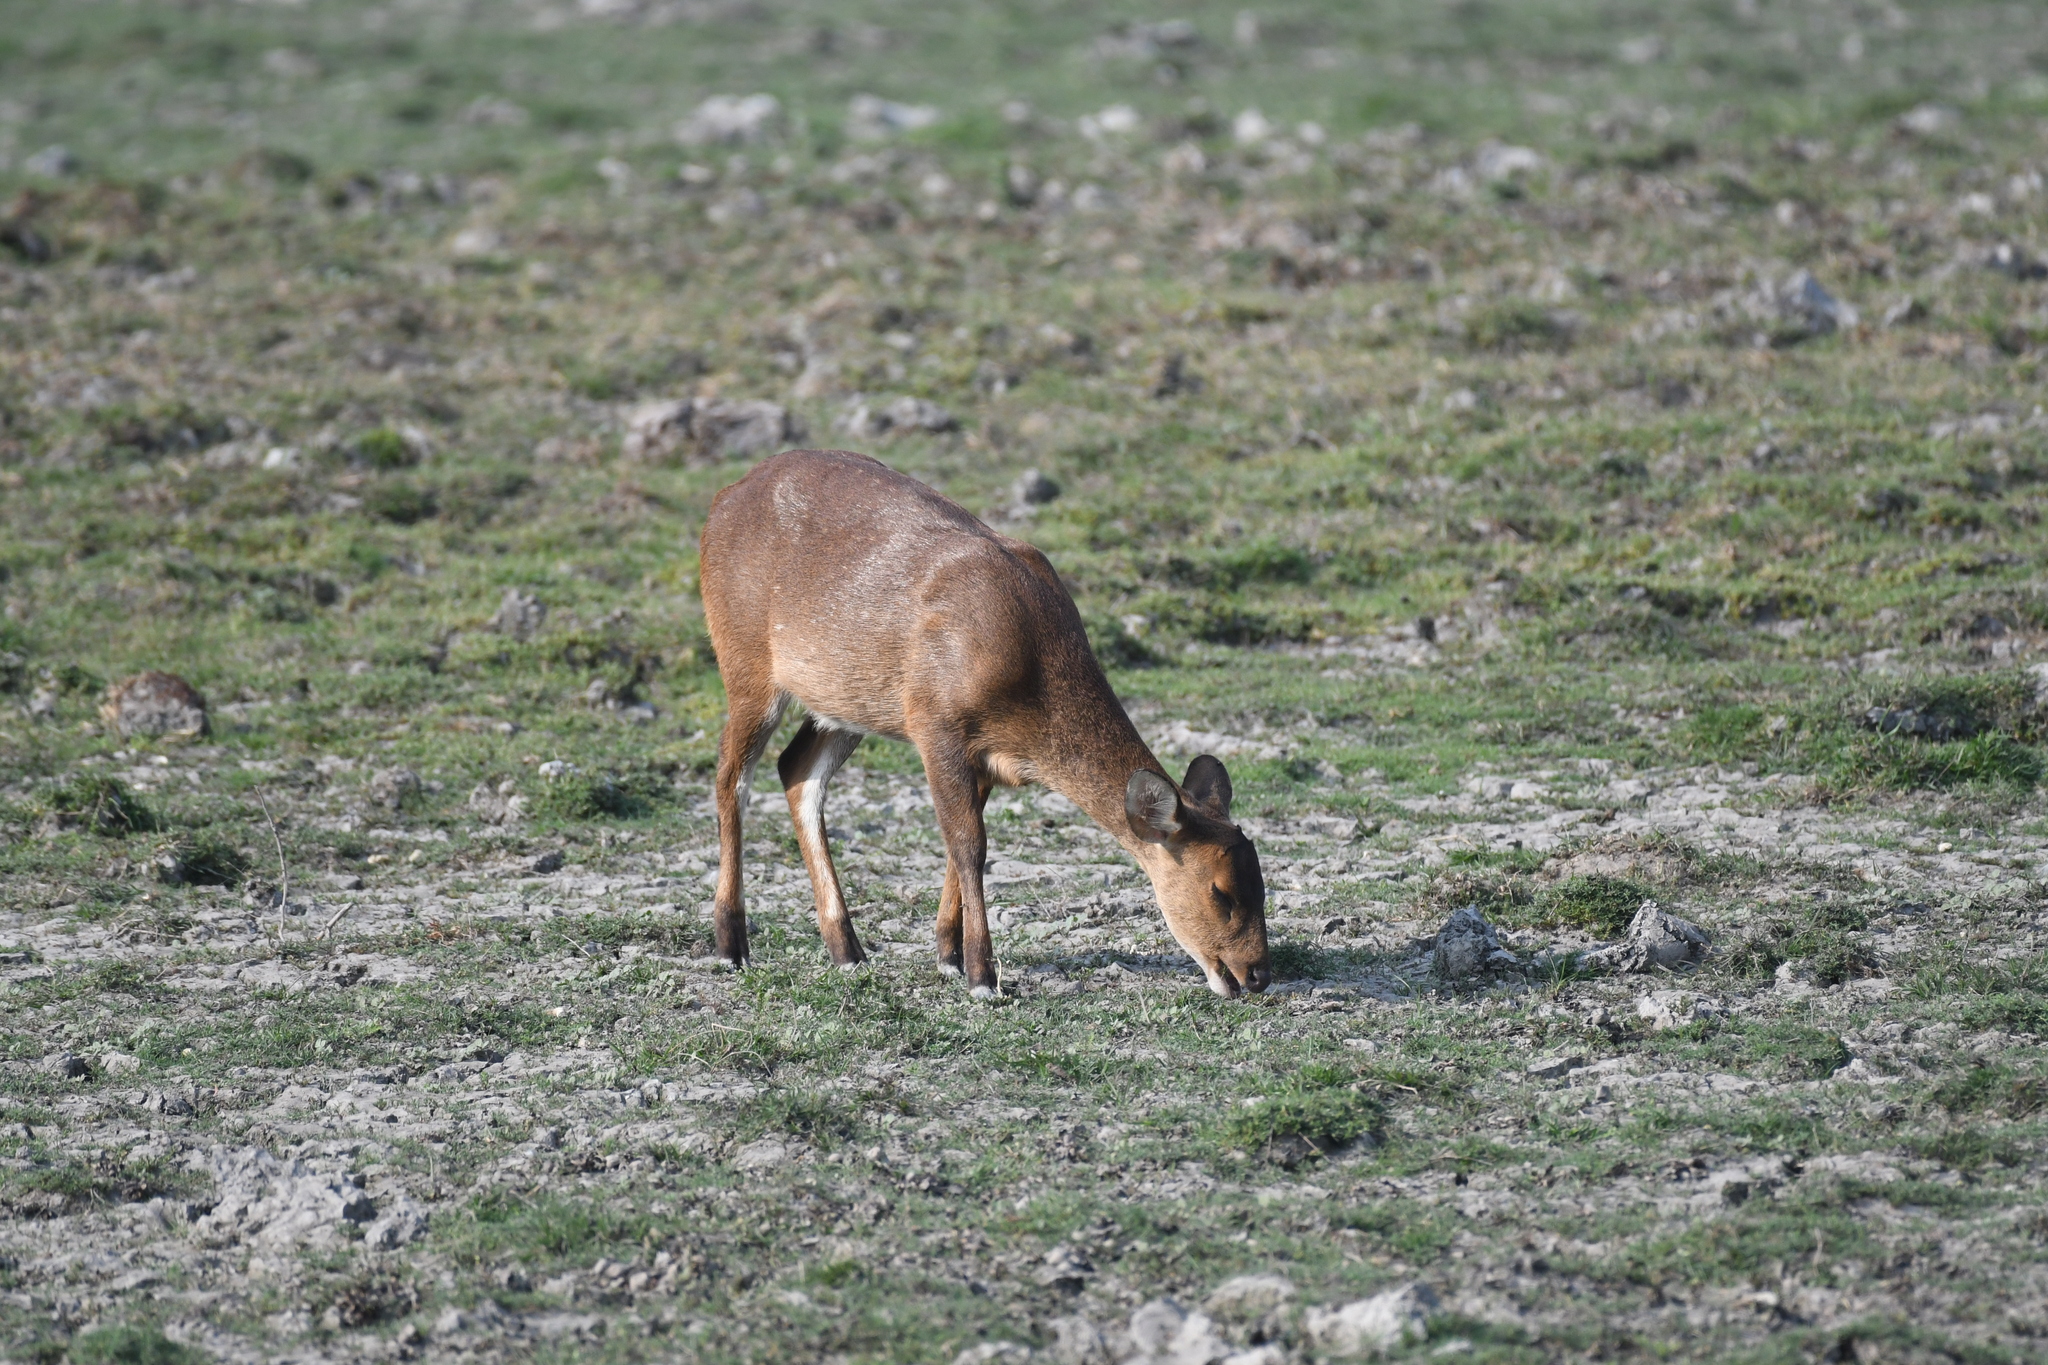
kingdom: Animalia
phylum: Chordata
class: Mammalia
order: Artiodactyla
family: Cervidae
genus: Axis
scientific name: Axis porcinus
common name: Hog deer
